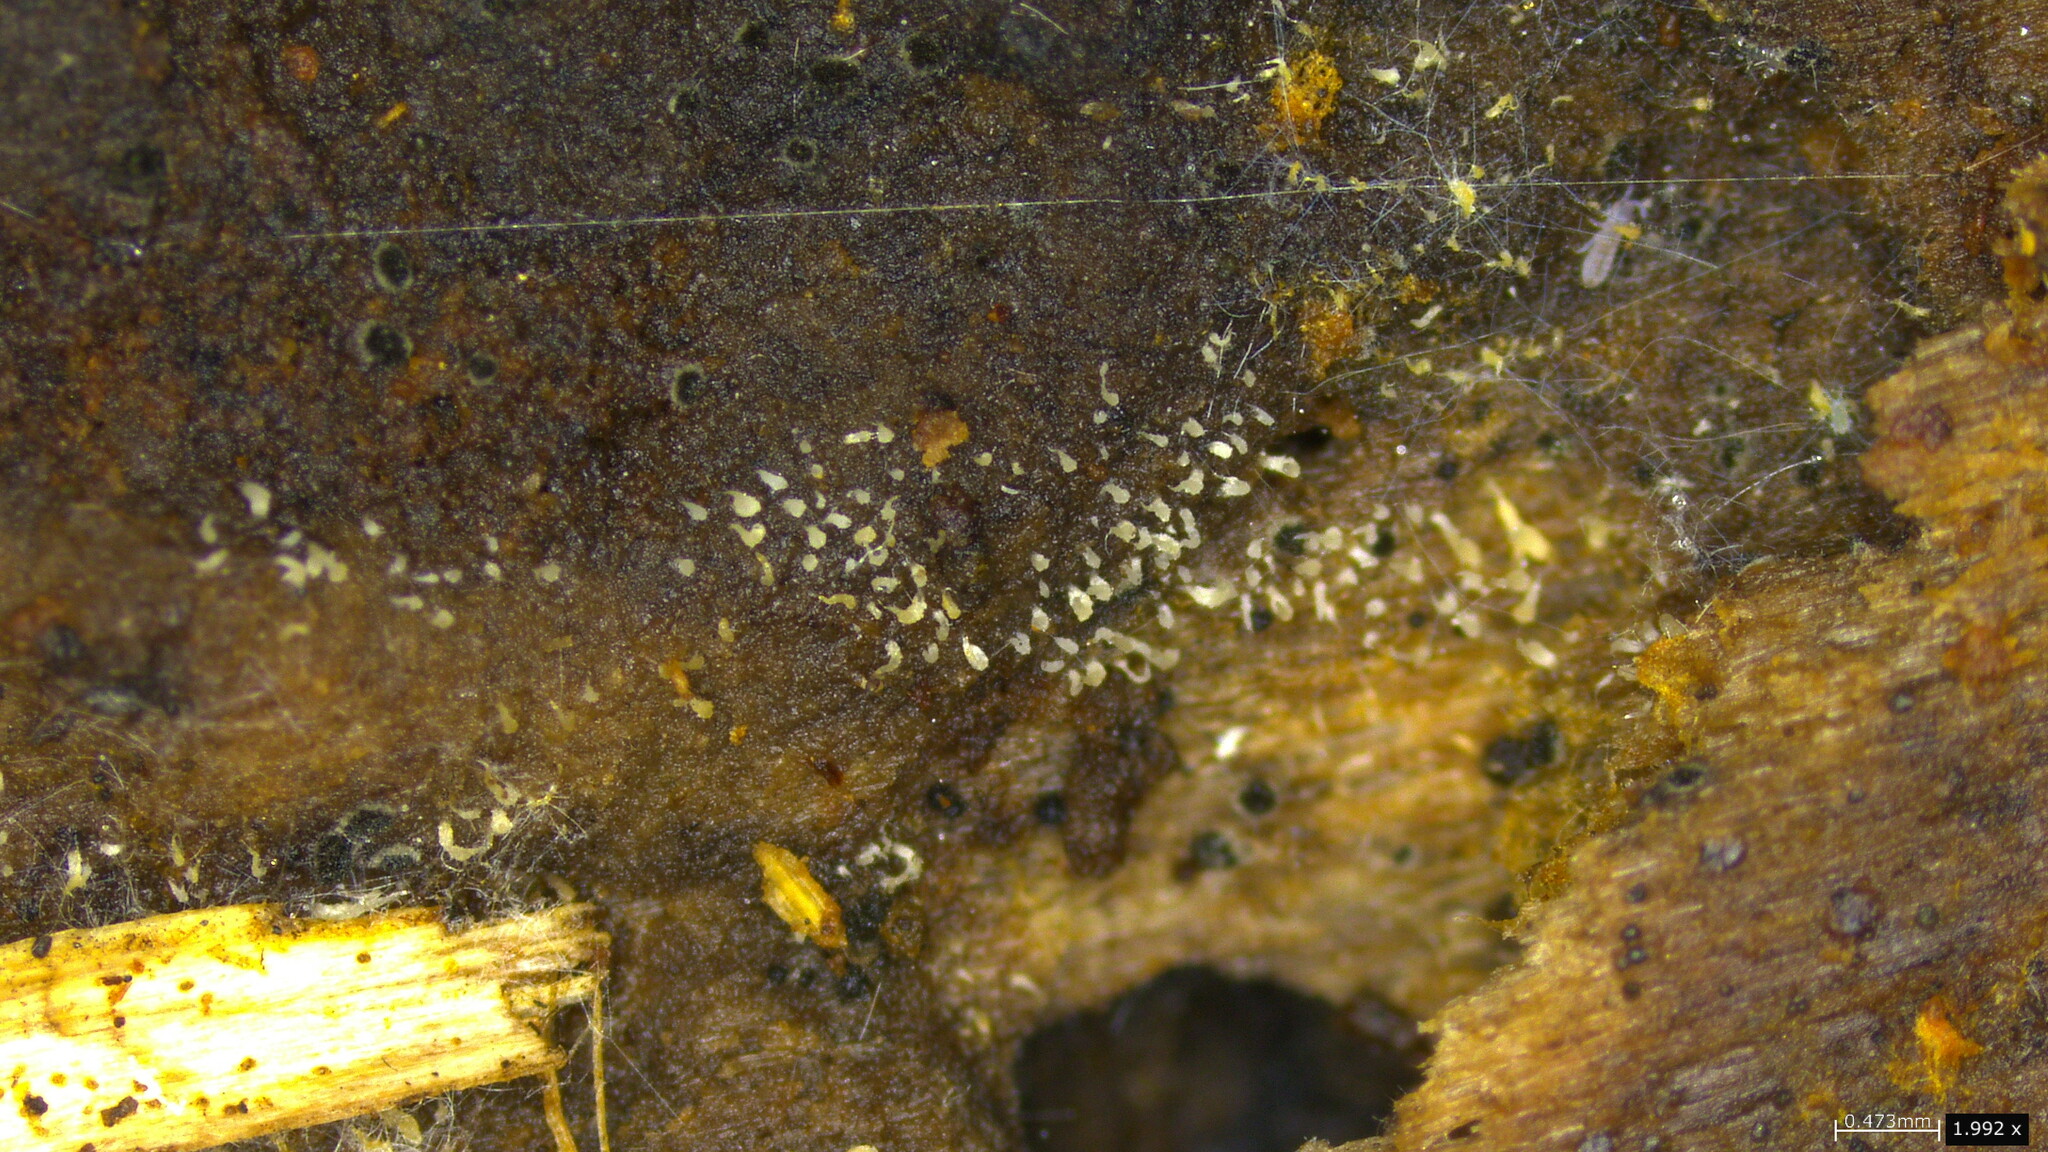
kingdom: Fungi
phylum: Basidiomycota
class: Agaricomycetes
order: Agaricales
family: Clavariaceae
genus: Mucronella
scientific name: Mucronella calva
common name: Swarming spine
